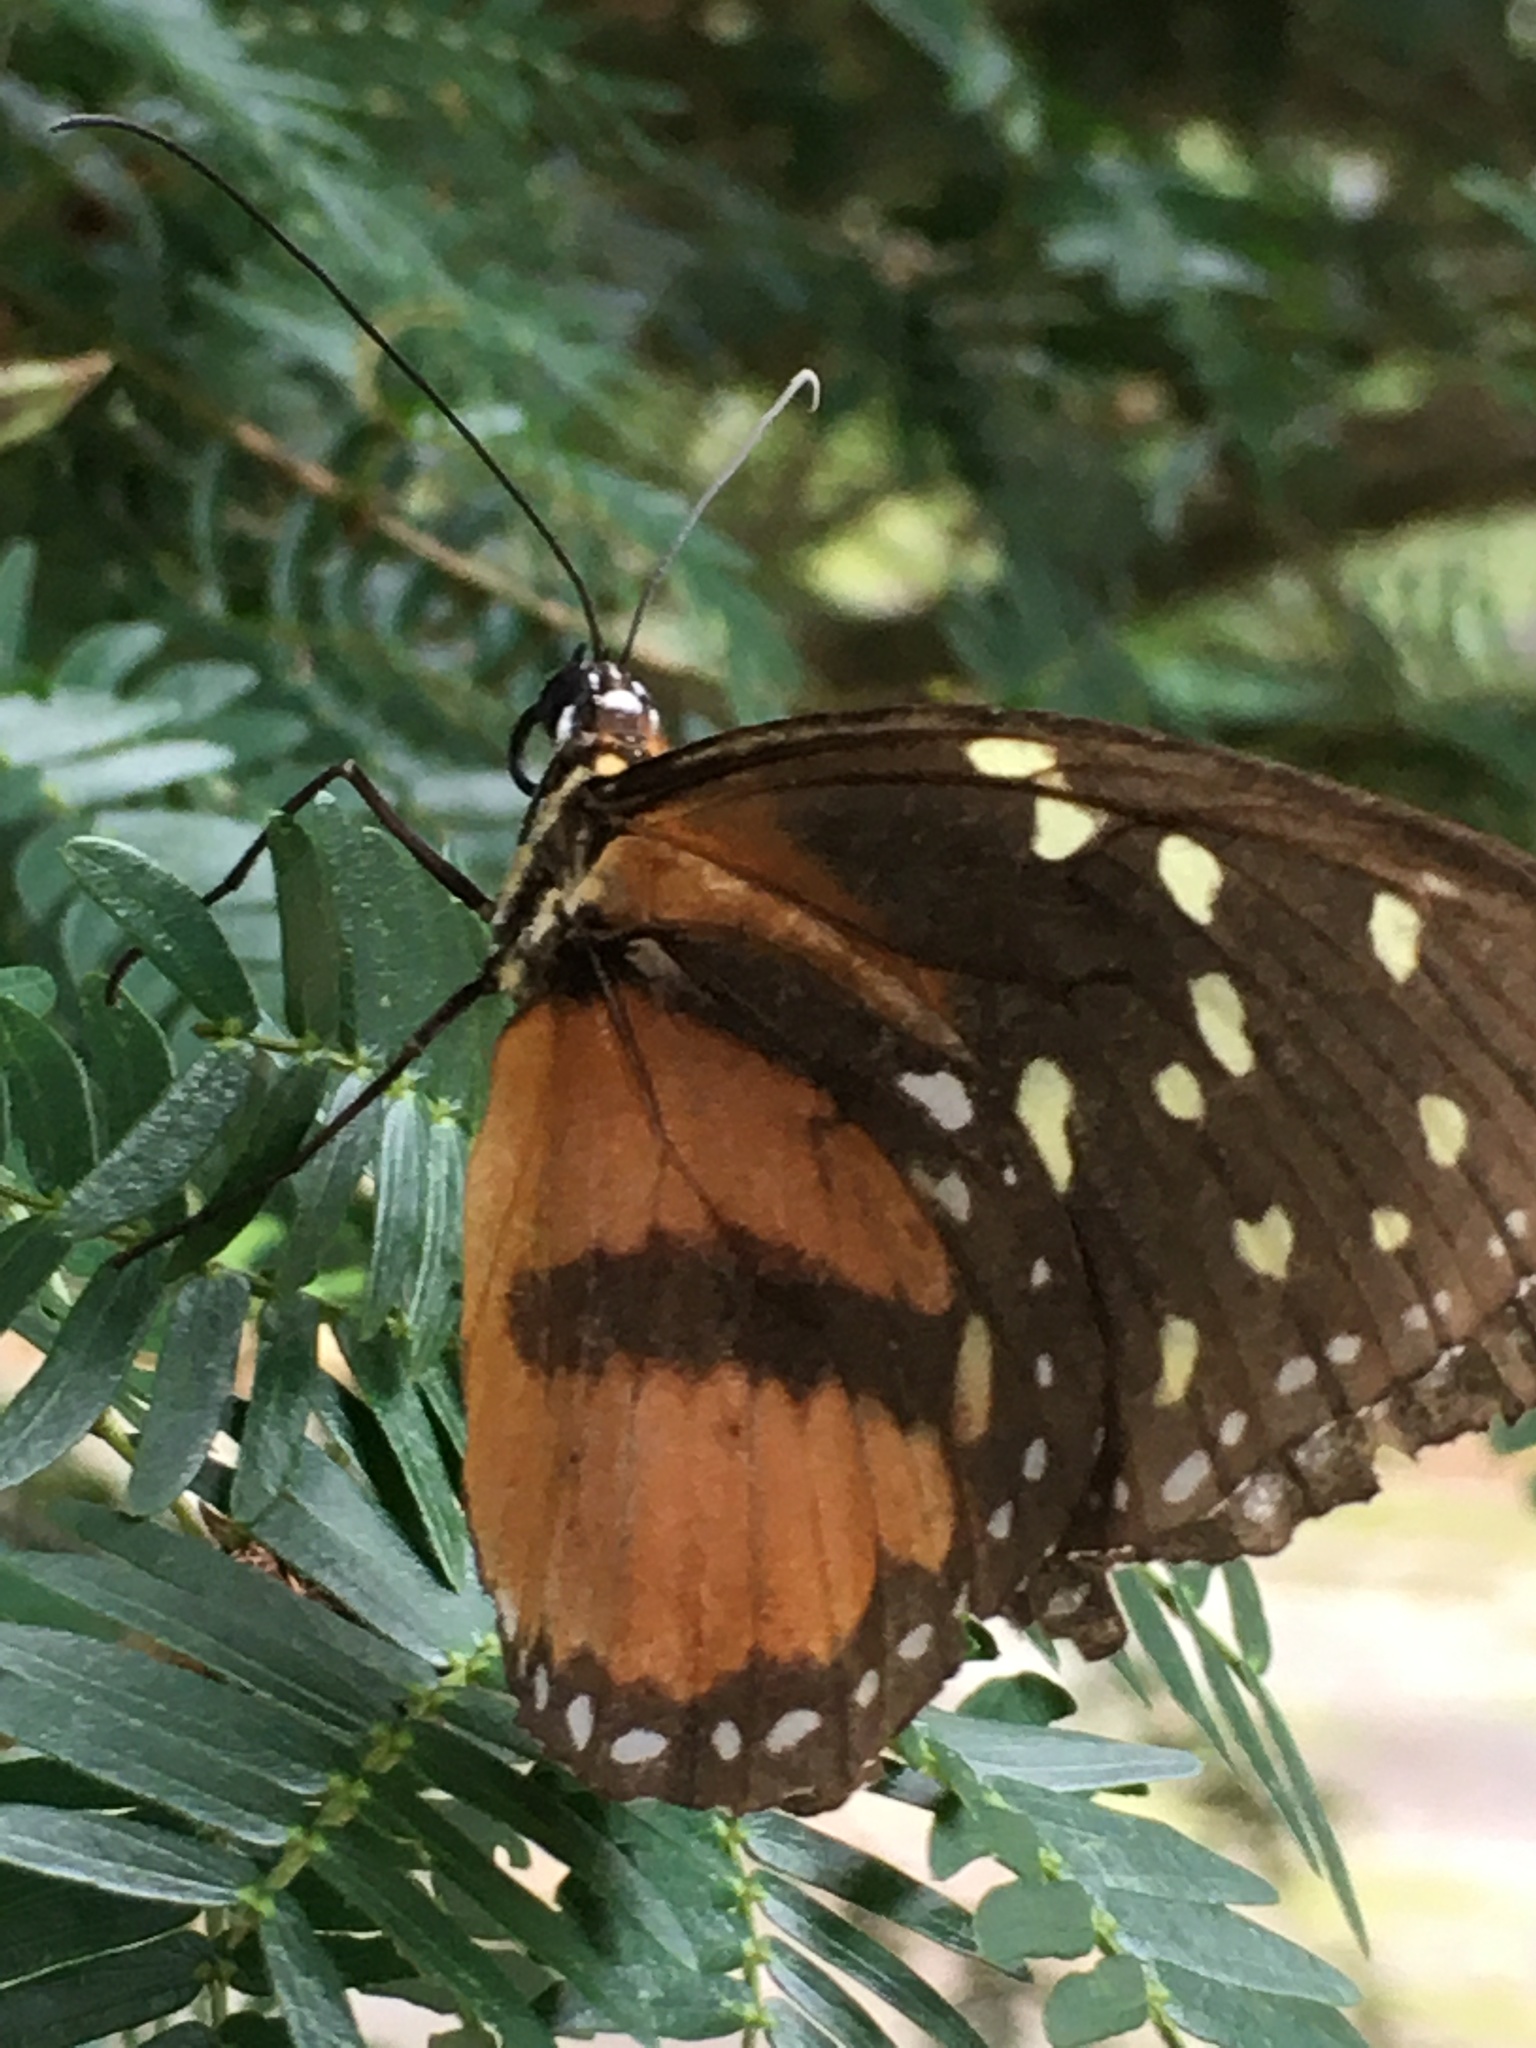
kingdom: Animalia
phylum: Arthropoda
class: Insecta
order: Lepidoptera
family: Nymphalidae
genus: Tithorea
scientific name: Tithorea tarricina
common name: Cream-spotted tigerwing
